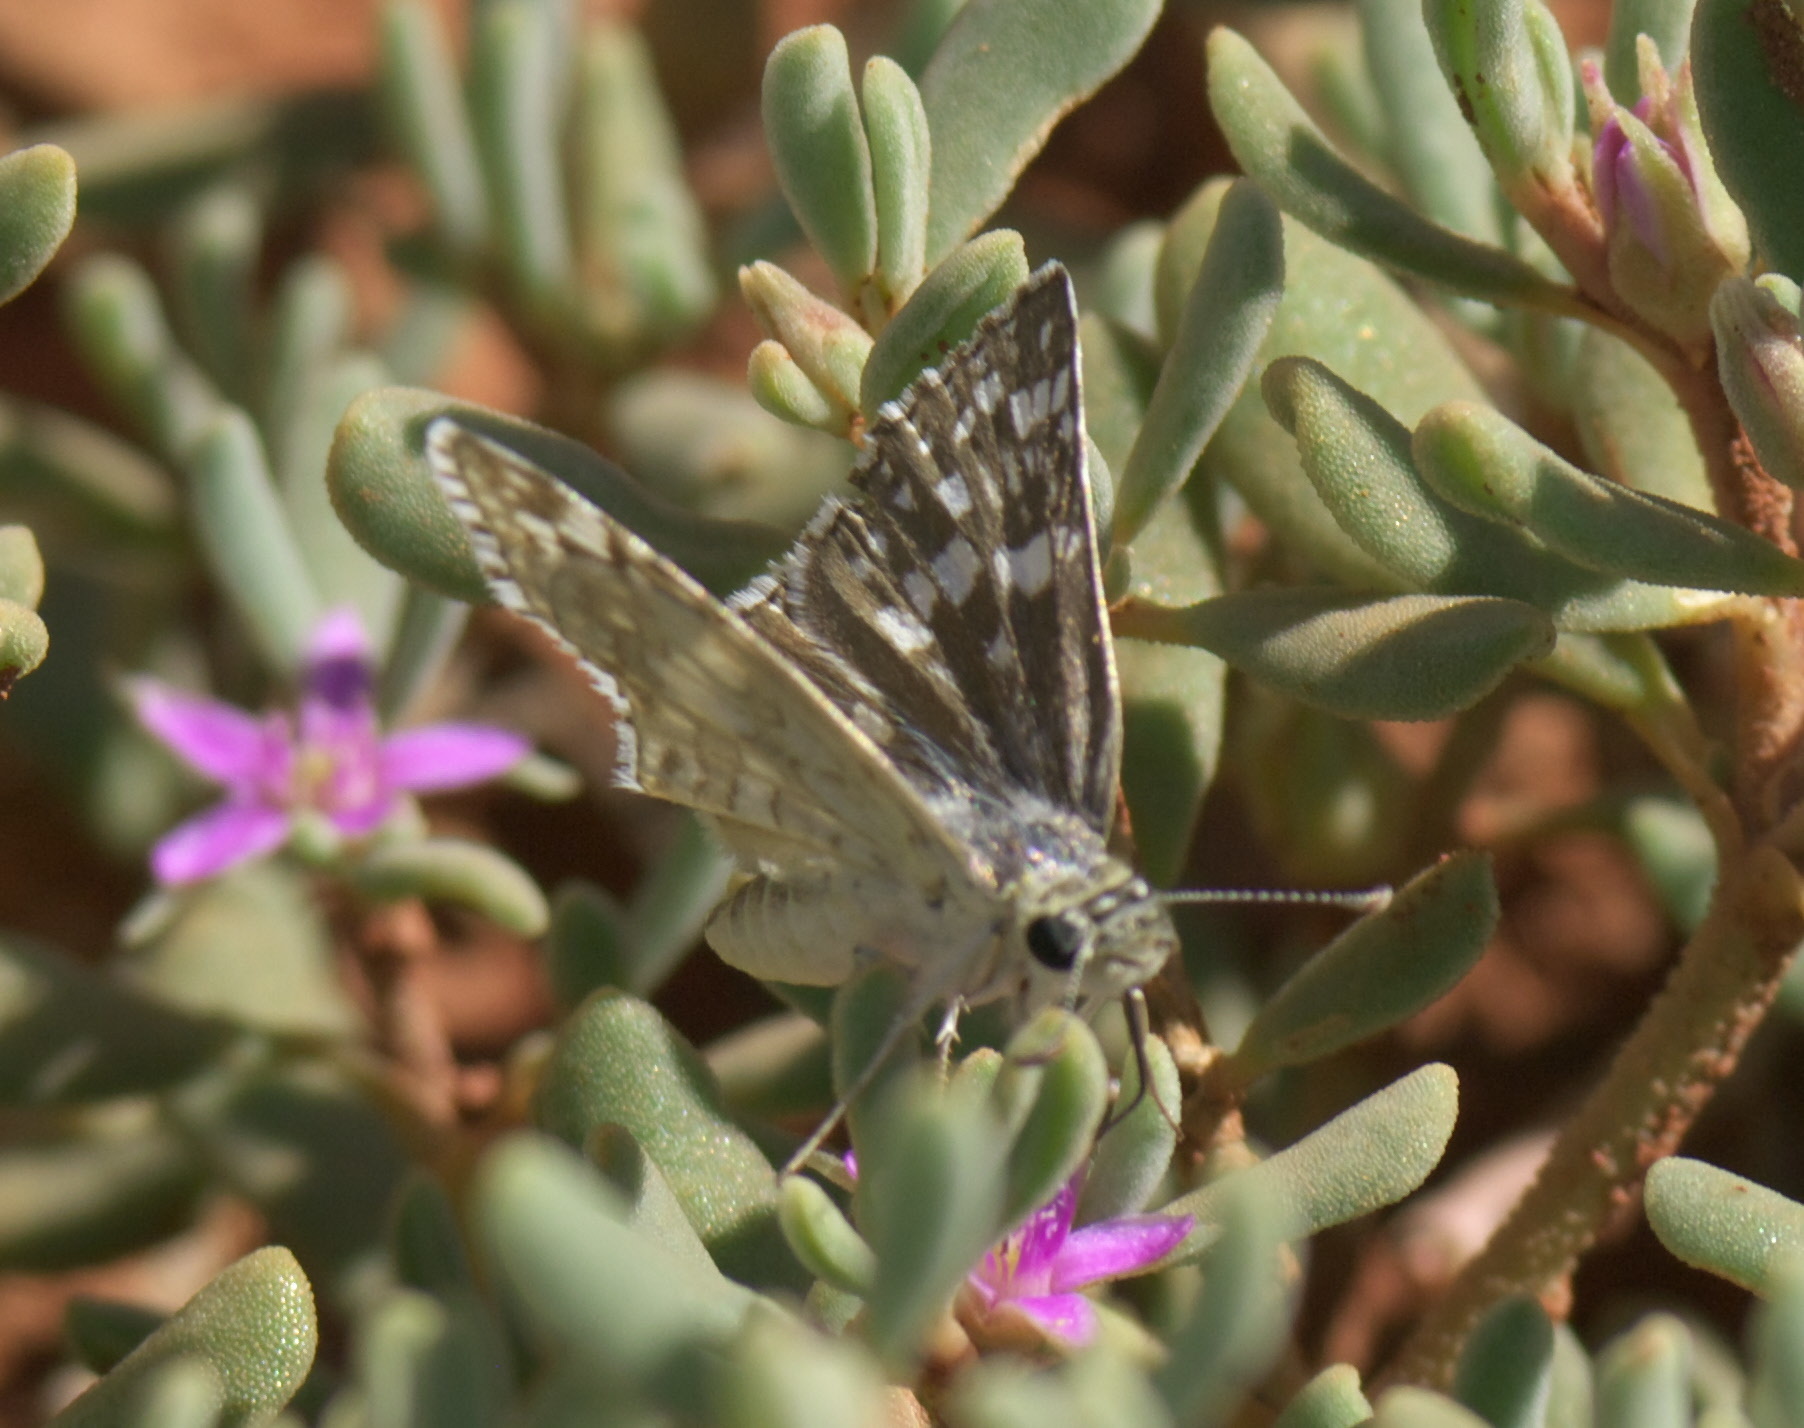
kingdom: Animalia
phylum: Arthropoda
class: Insecta
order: Lepidoptera
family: Hesperiidae
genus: Burnsius
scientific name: Burnsius communis
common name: Common checkered-skipper
